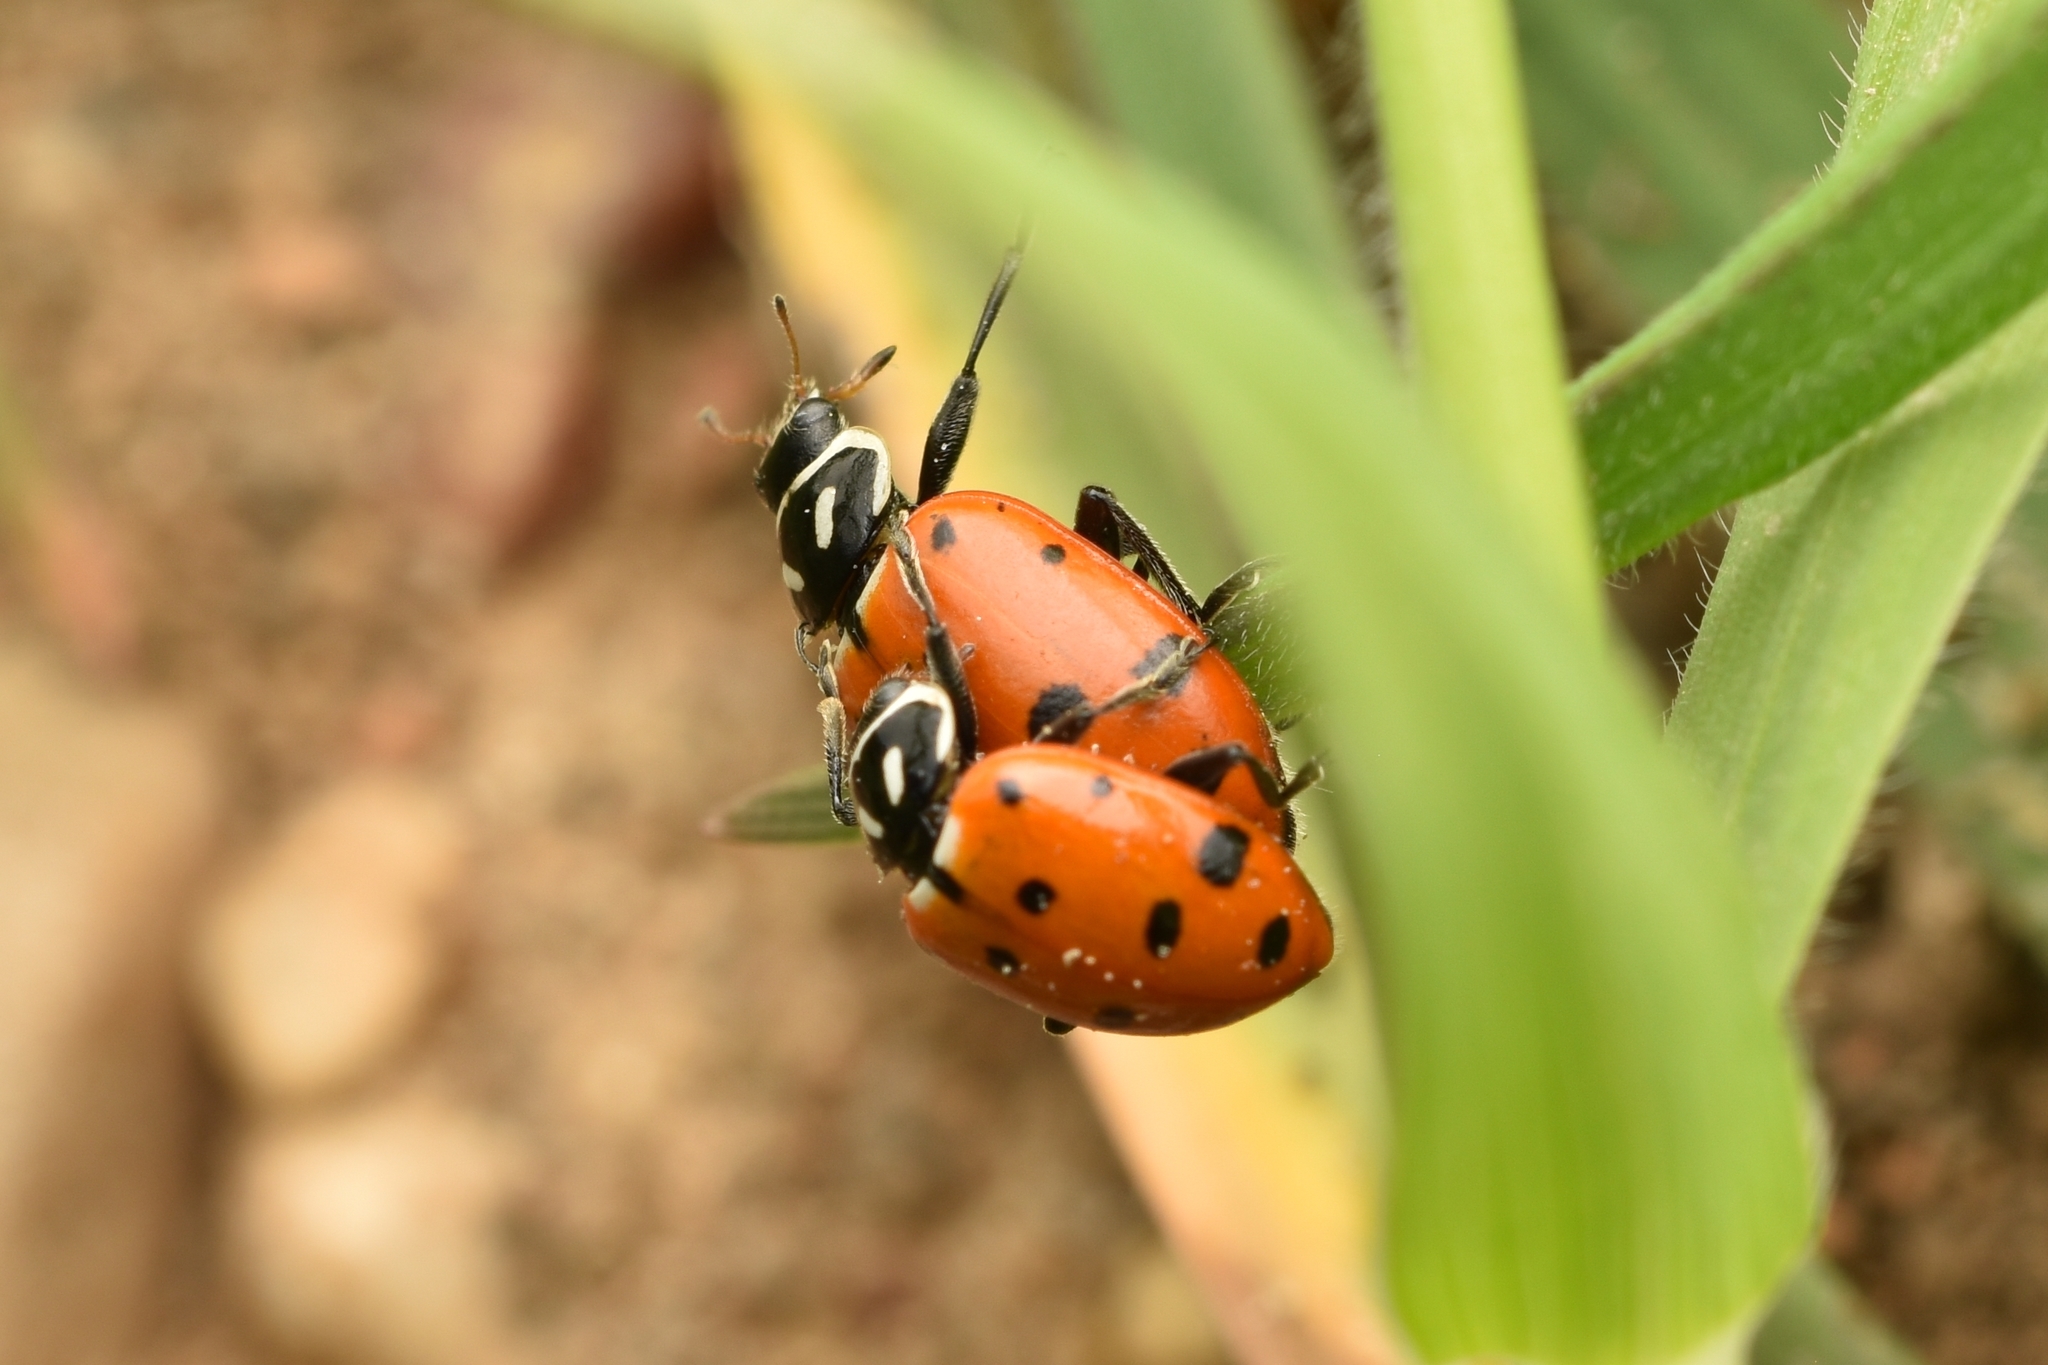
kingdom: Animalia
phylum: Arthropoda
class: Insecta
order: Coleoptera
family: Coccinellidae
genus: Hippodamia
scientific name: Hippodamia convergens
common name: Convergent lady beetle
